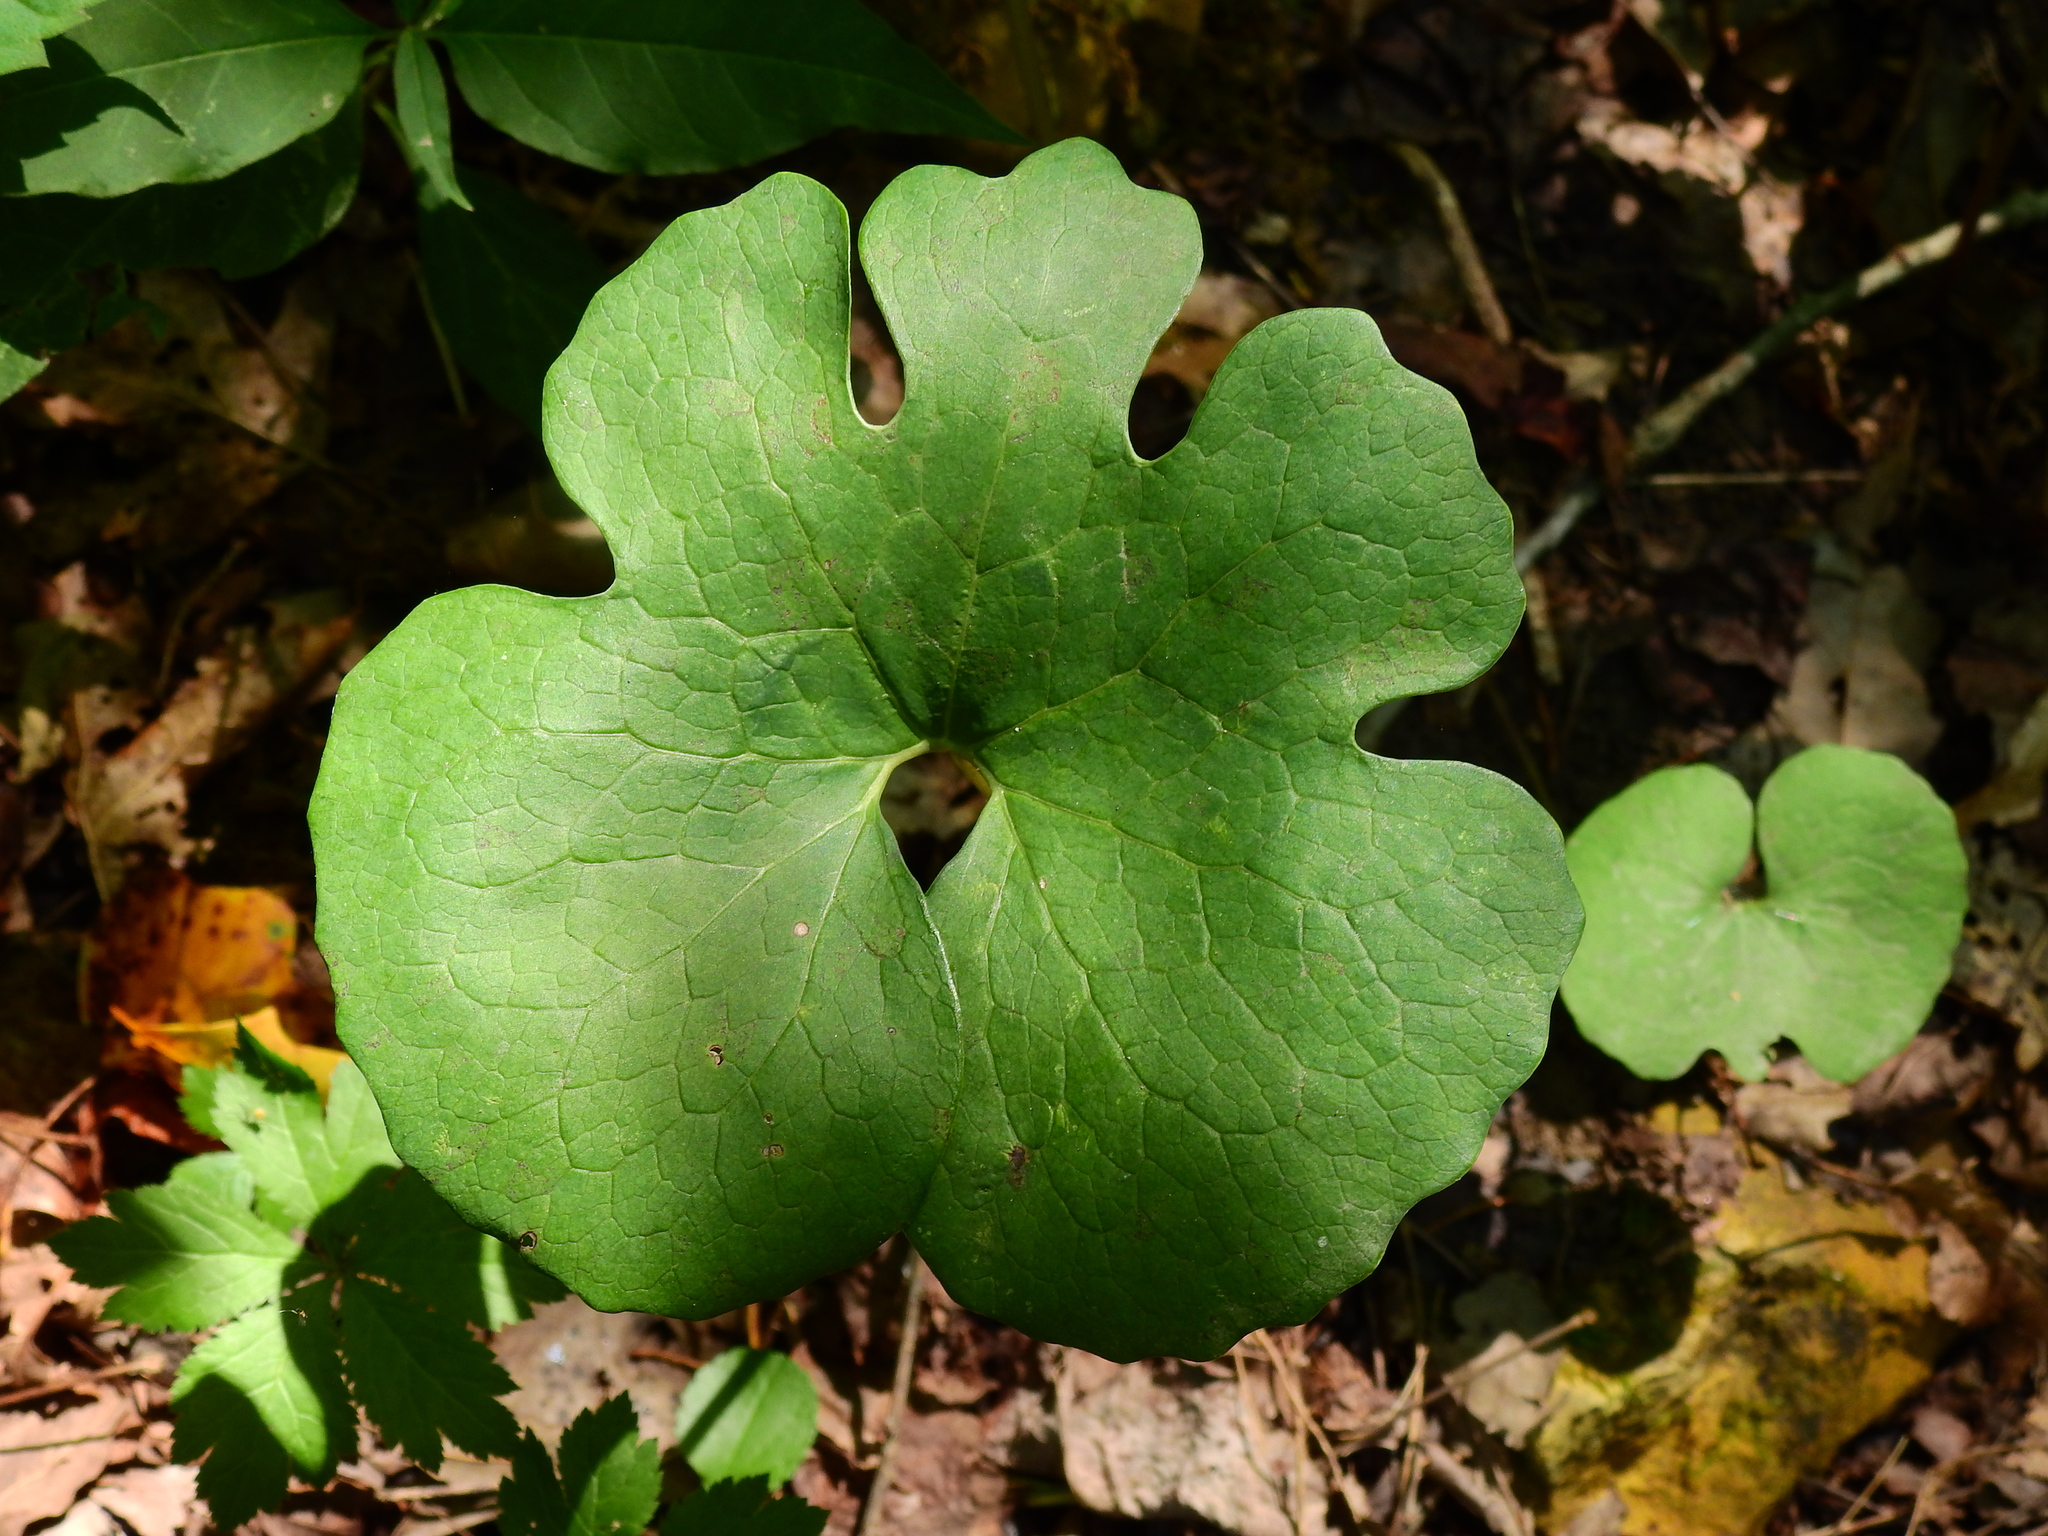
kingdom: Plantae
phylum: Tracheophyta
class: Magnoliopsida
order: Ranunculales
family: Papaveraceae
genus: Sanguinaria
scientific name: Sanguinaria canadensis
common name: Bloodroot
